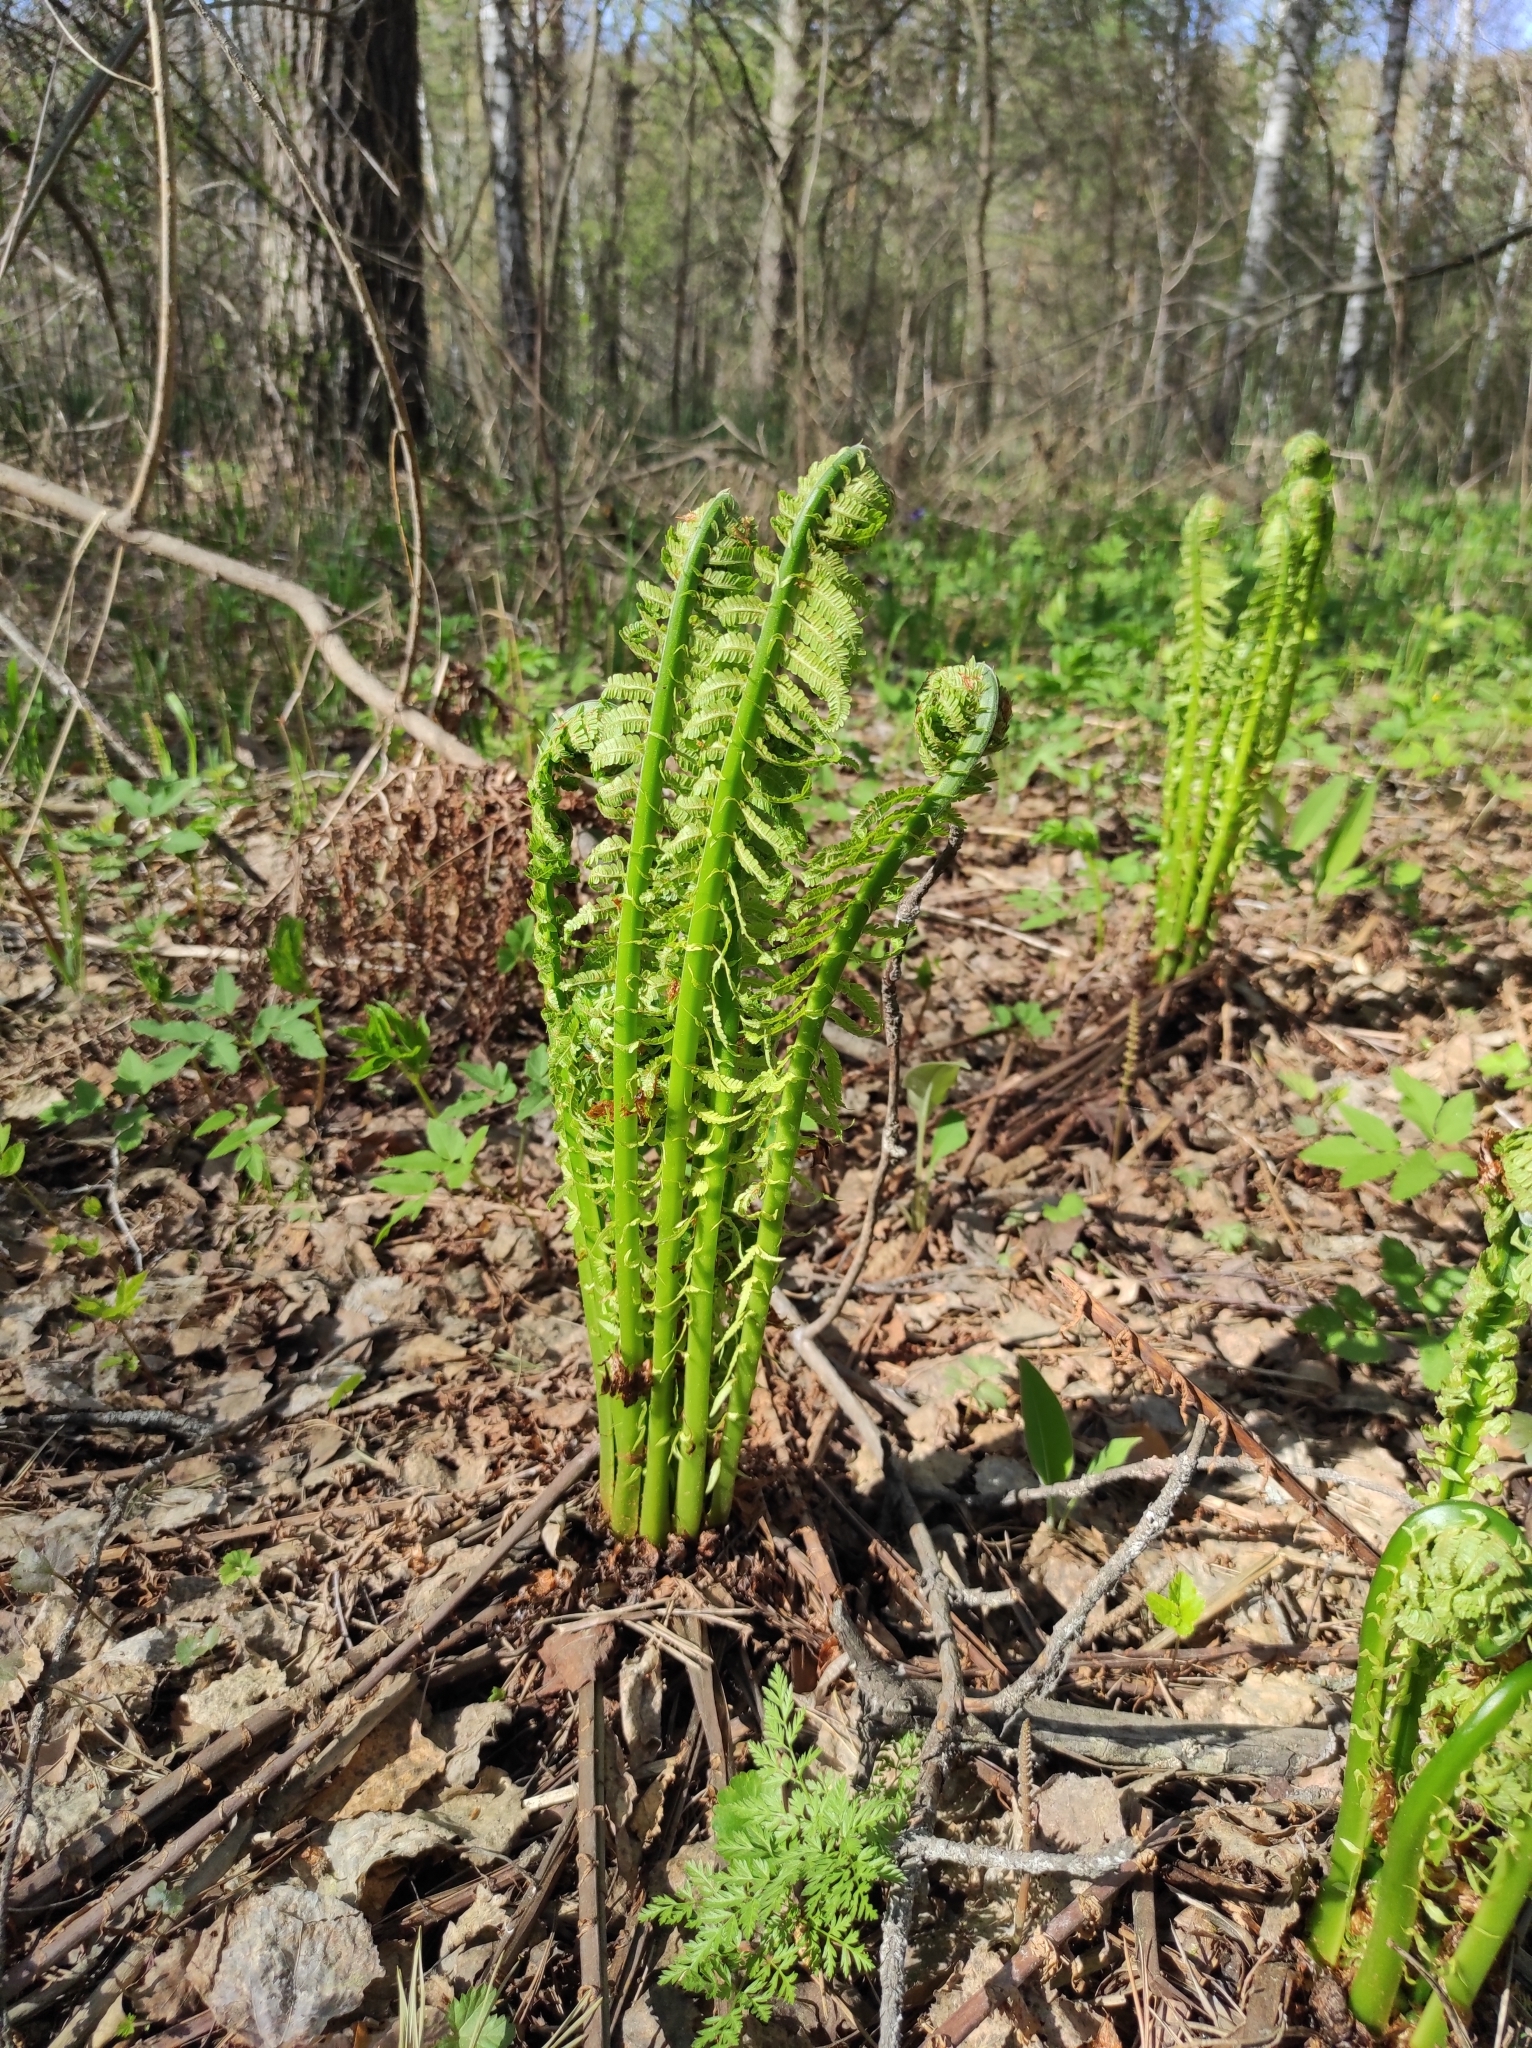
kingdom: Plantae
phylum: Tracheophyta
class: Magnoliopsida
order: Apiales
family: Apiaceae
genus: Aegopodium
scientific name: Aegopodium podagraria
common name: Ground-elder
